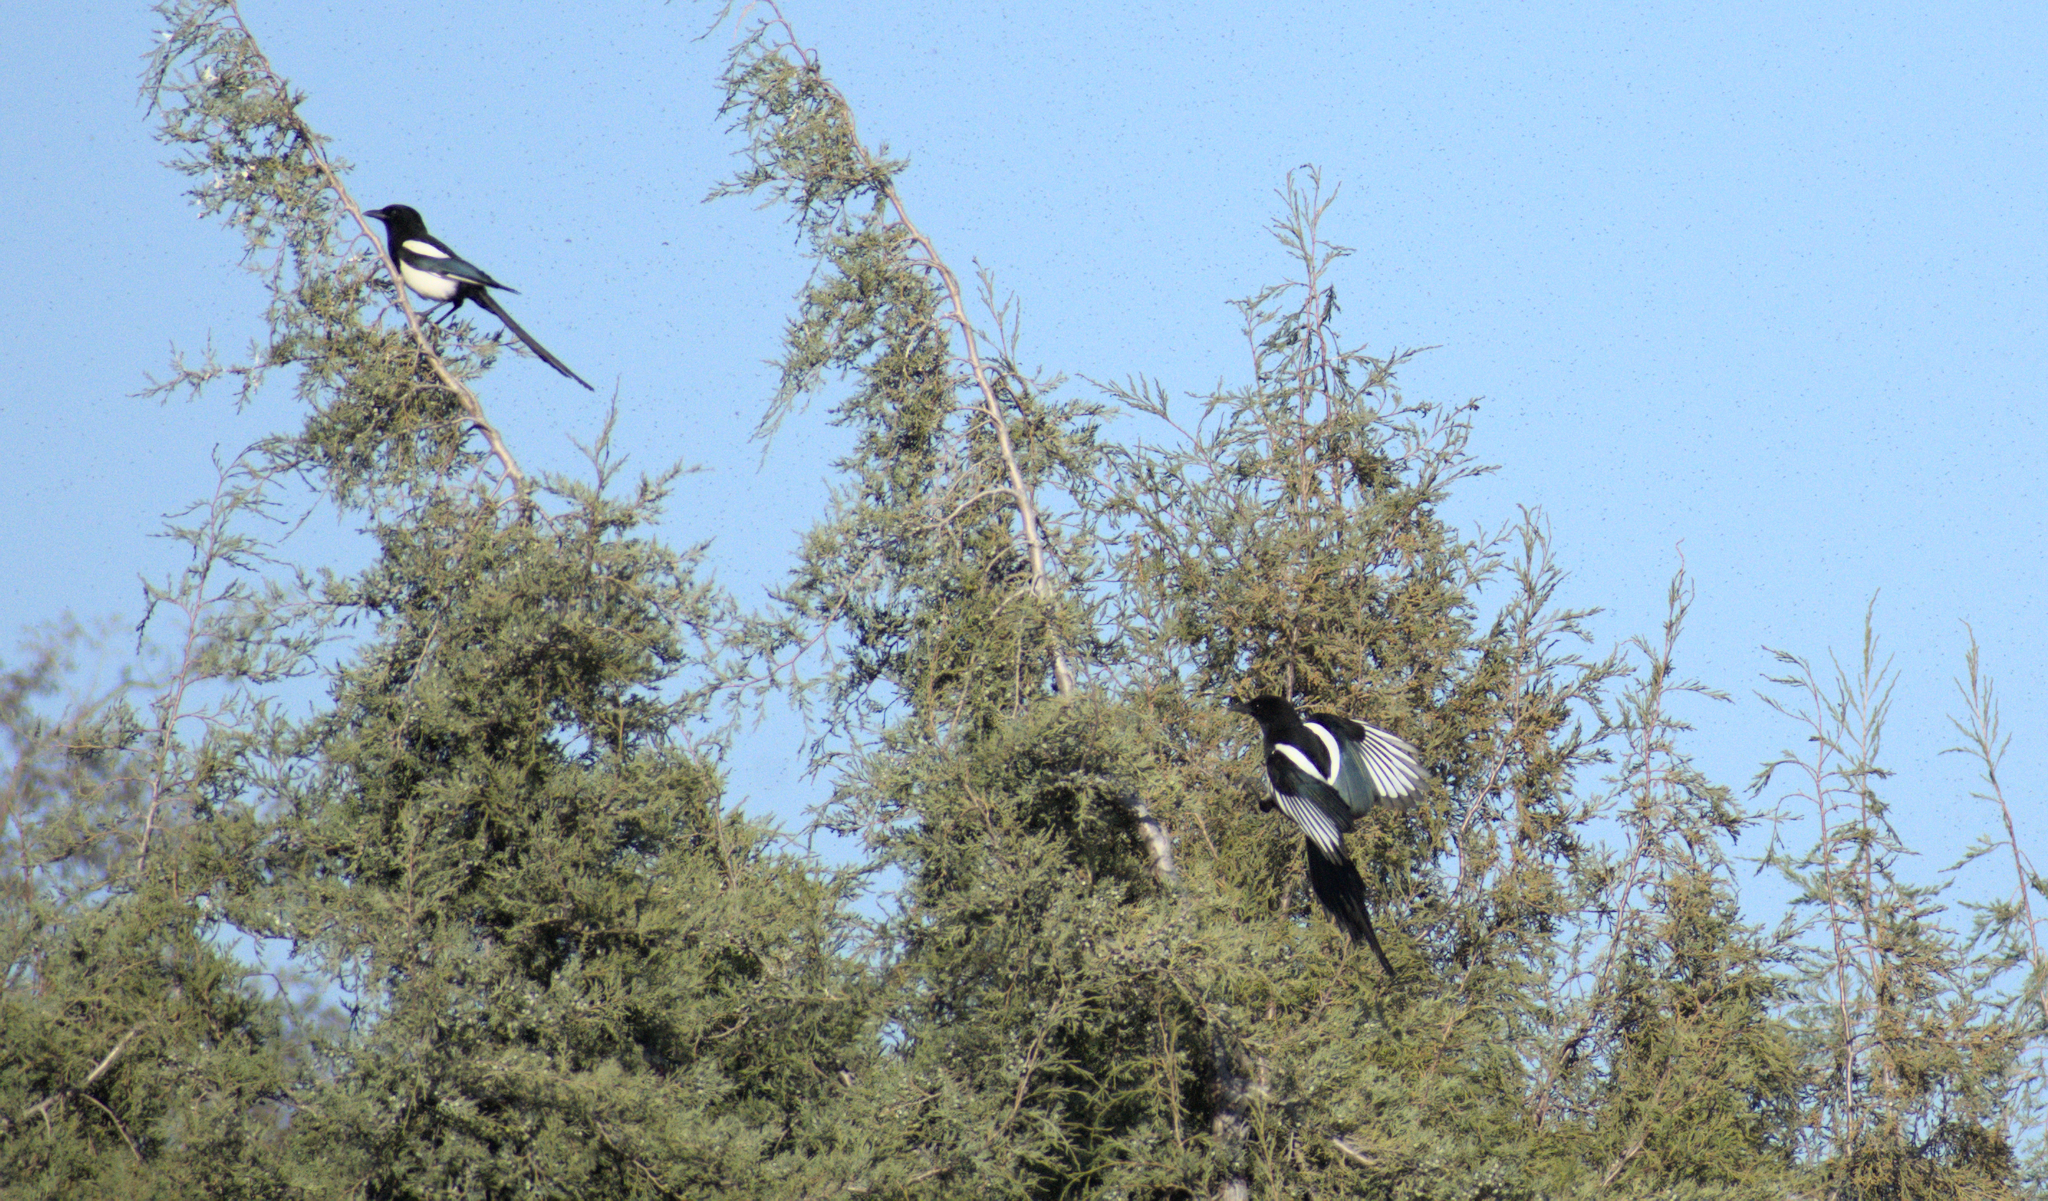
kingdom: Animalia
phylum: Chordata
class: Aves
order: Passeriformes
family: Corvidae
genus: Pica
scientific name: Pica hudsonia
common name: Black-billed magpie
